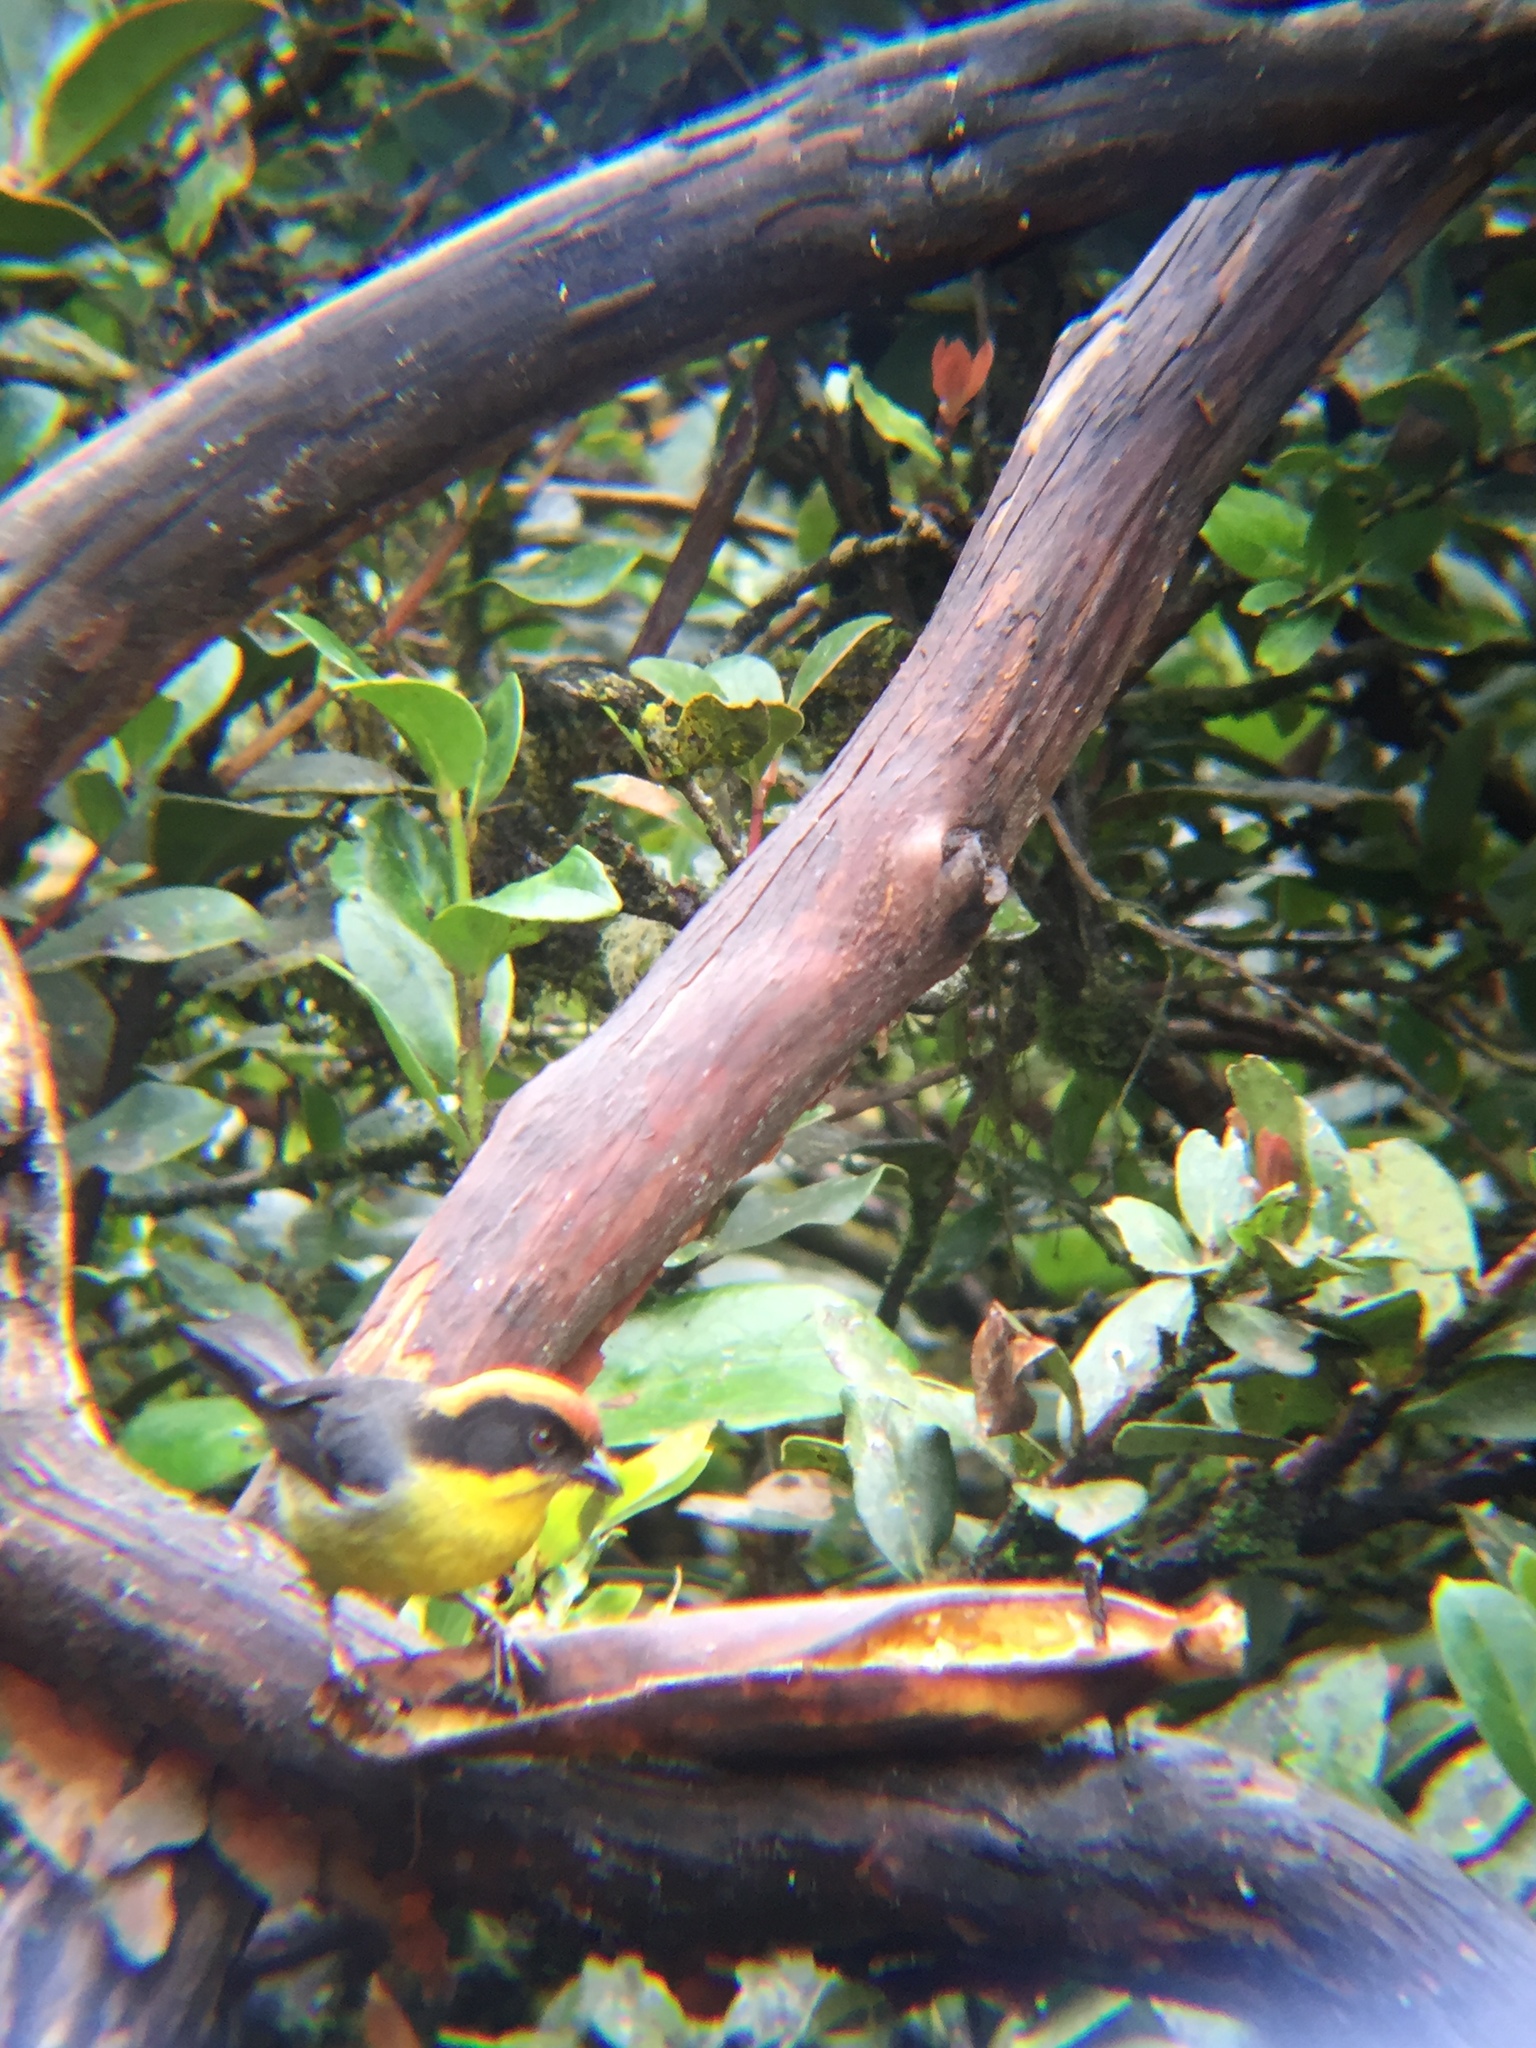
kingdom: Animalia
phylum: Chordata
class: Aves
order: Passeriformes
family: Passerellidae
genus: Atlapetes
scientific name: Atlapetes latinuchus
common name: Yellow-breasted brushfinch
